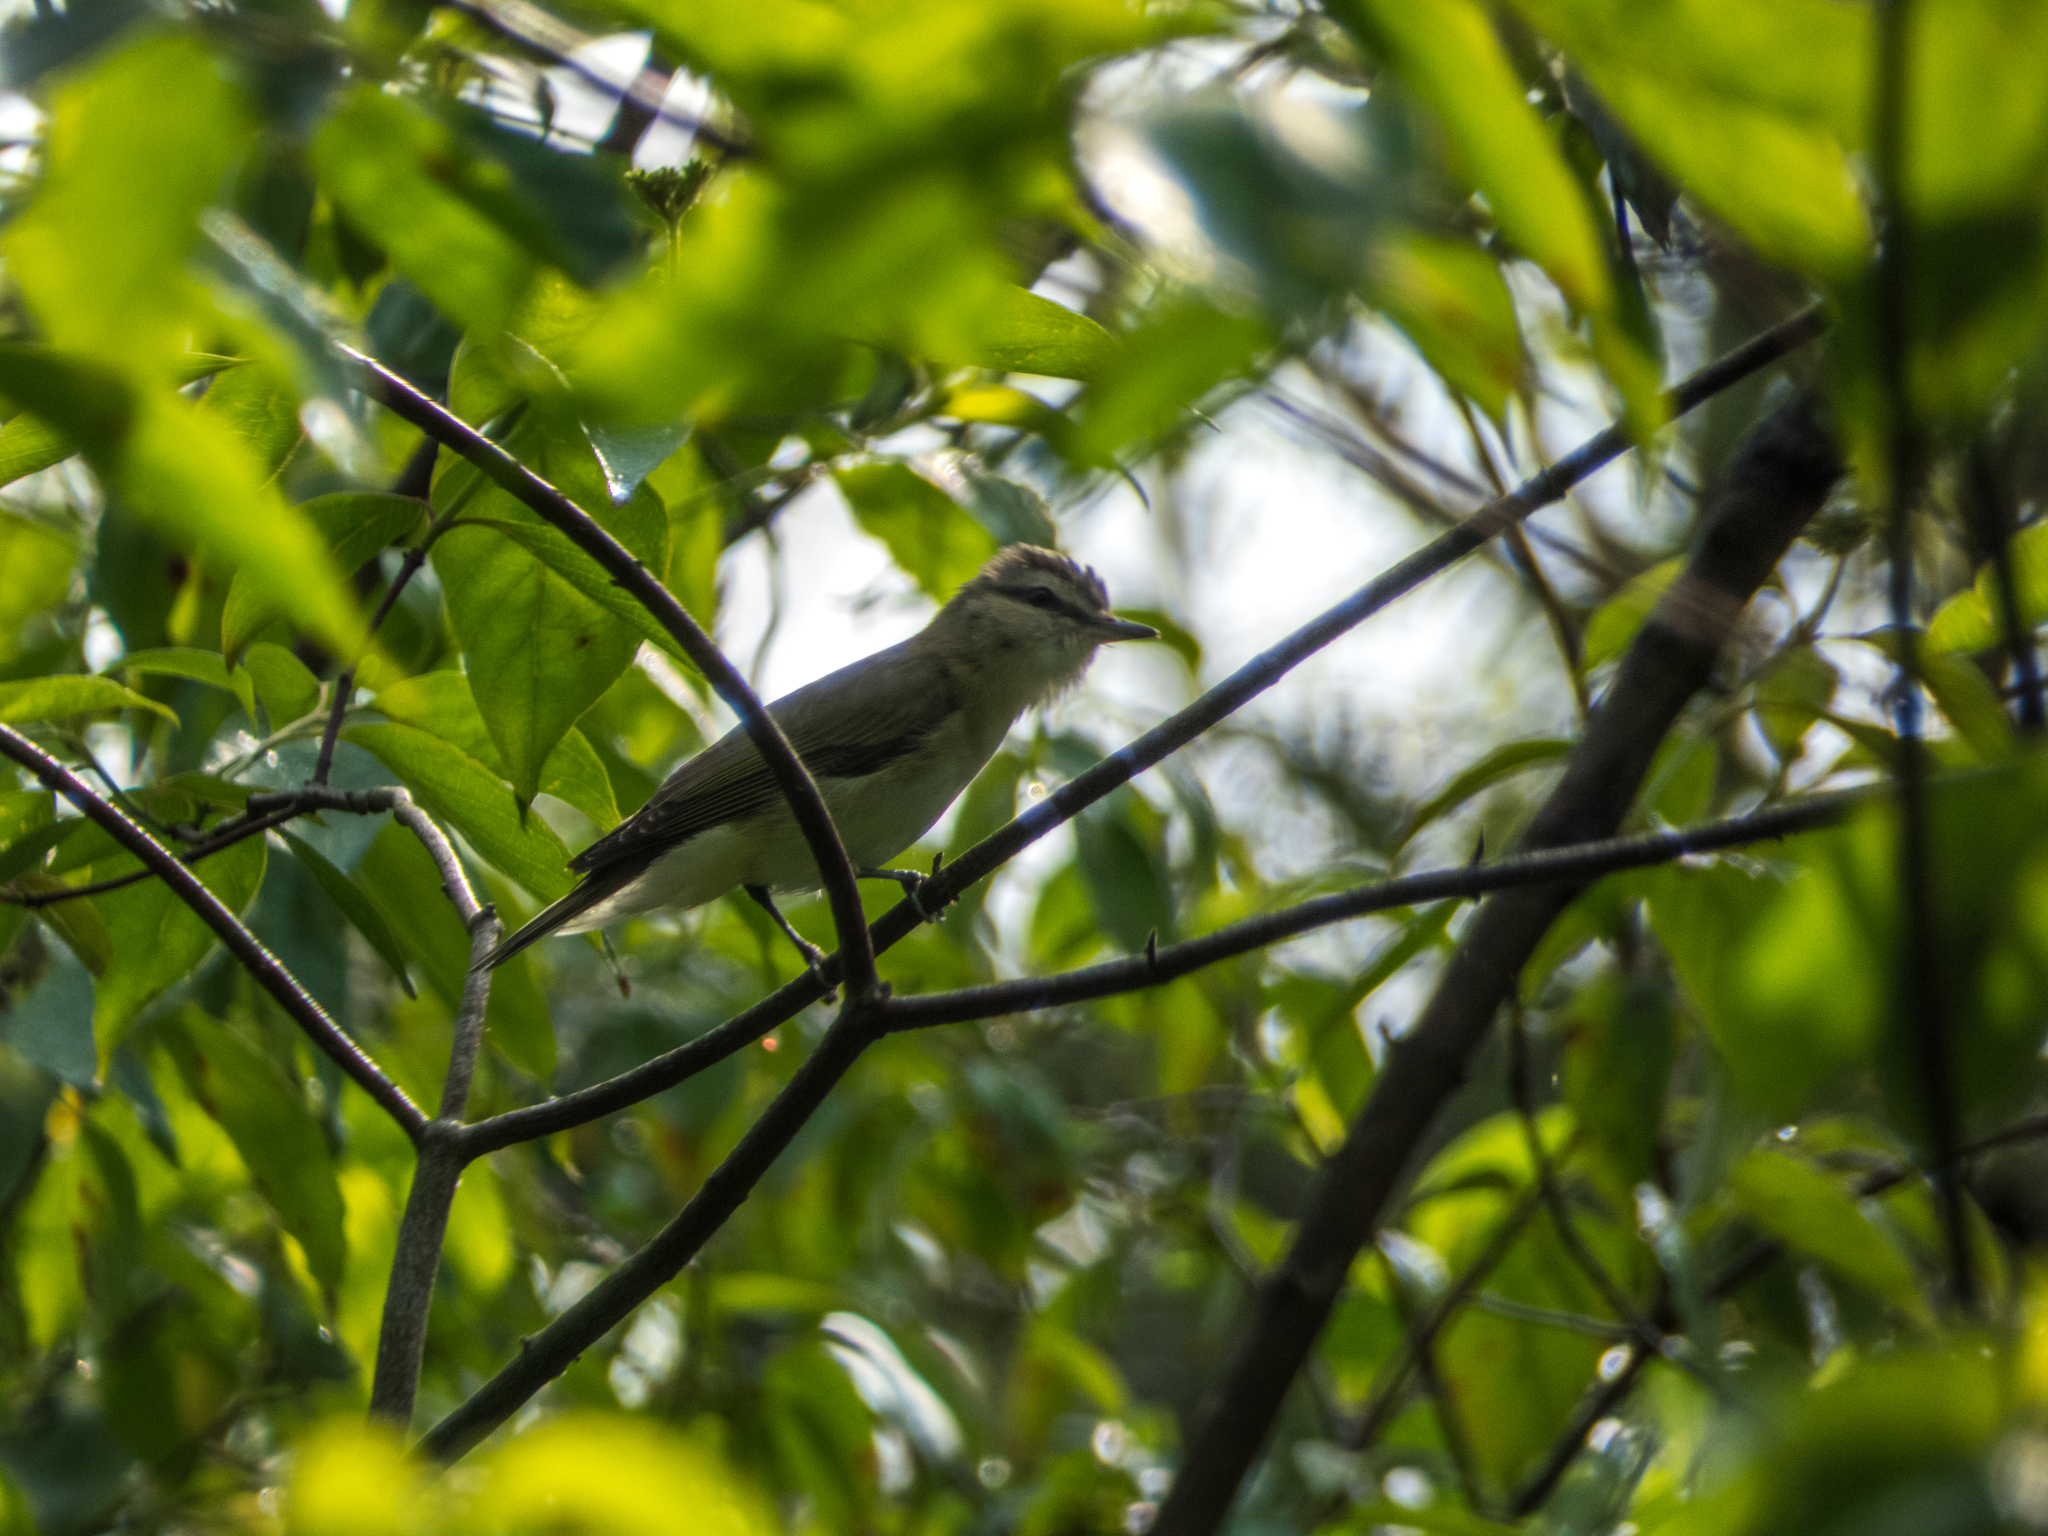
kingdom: Animalia
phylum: Chordata
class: Aves
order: Passeriformes
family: Vireonidae
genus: Vireo
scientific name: Vireo olivaceus
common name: Red-eyed vireo
